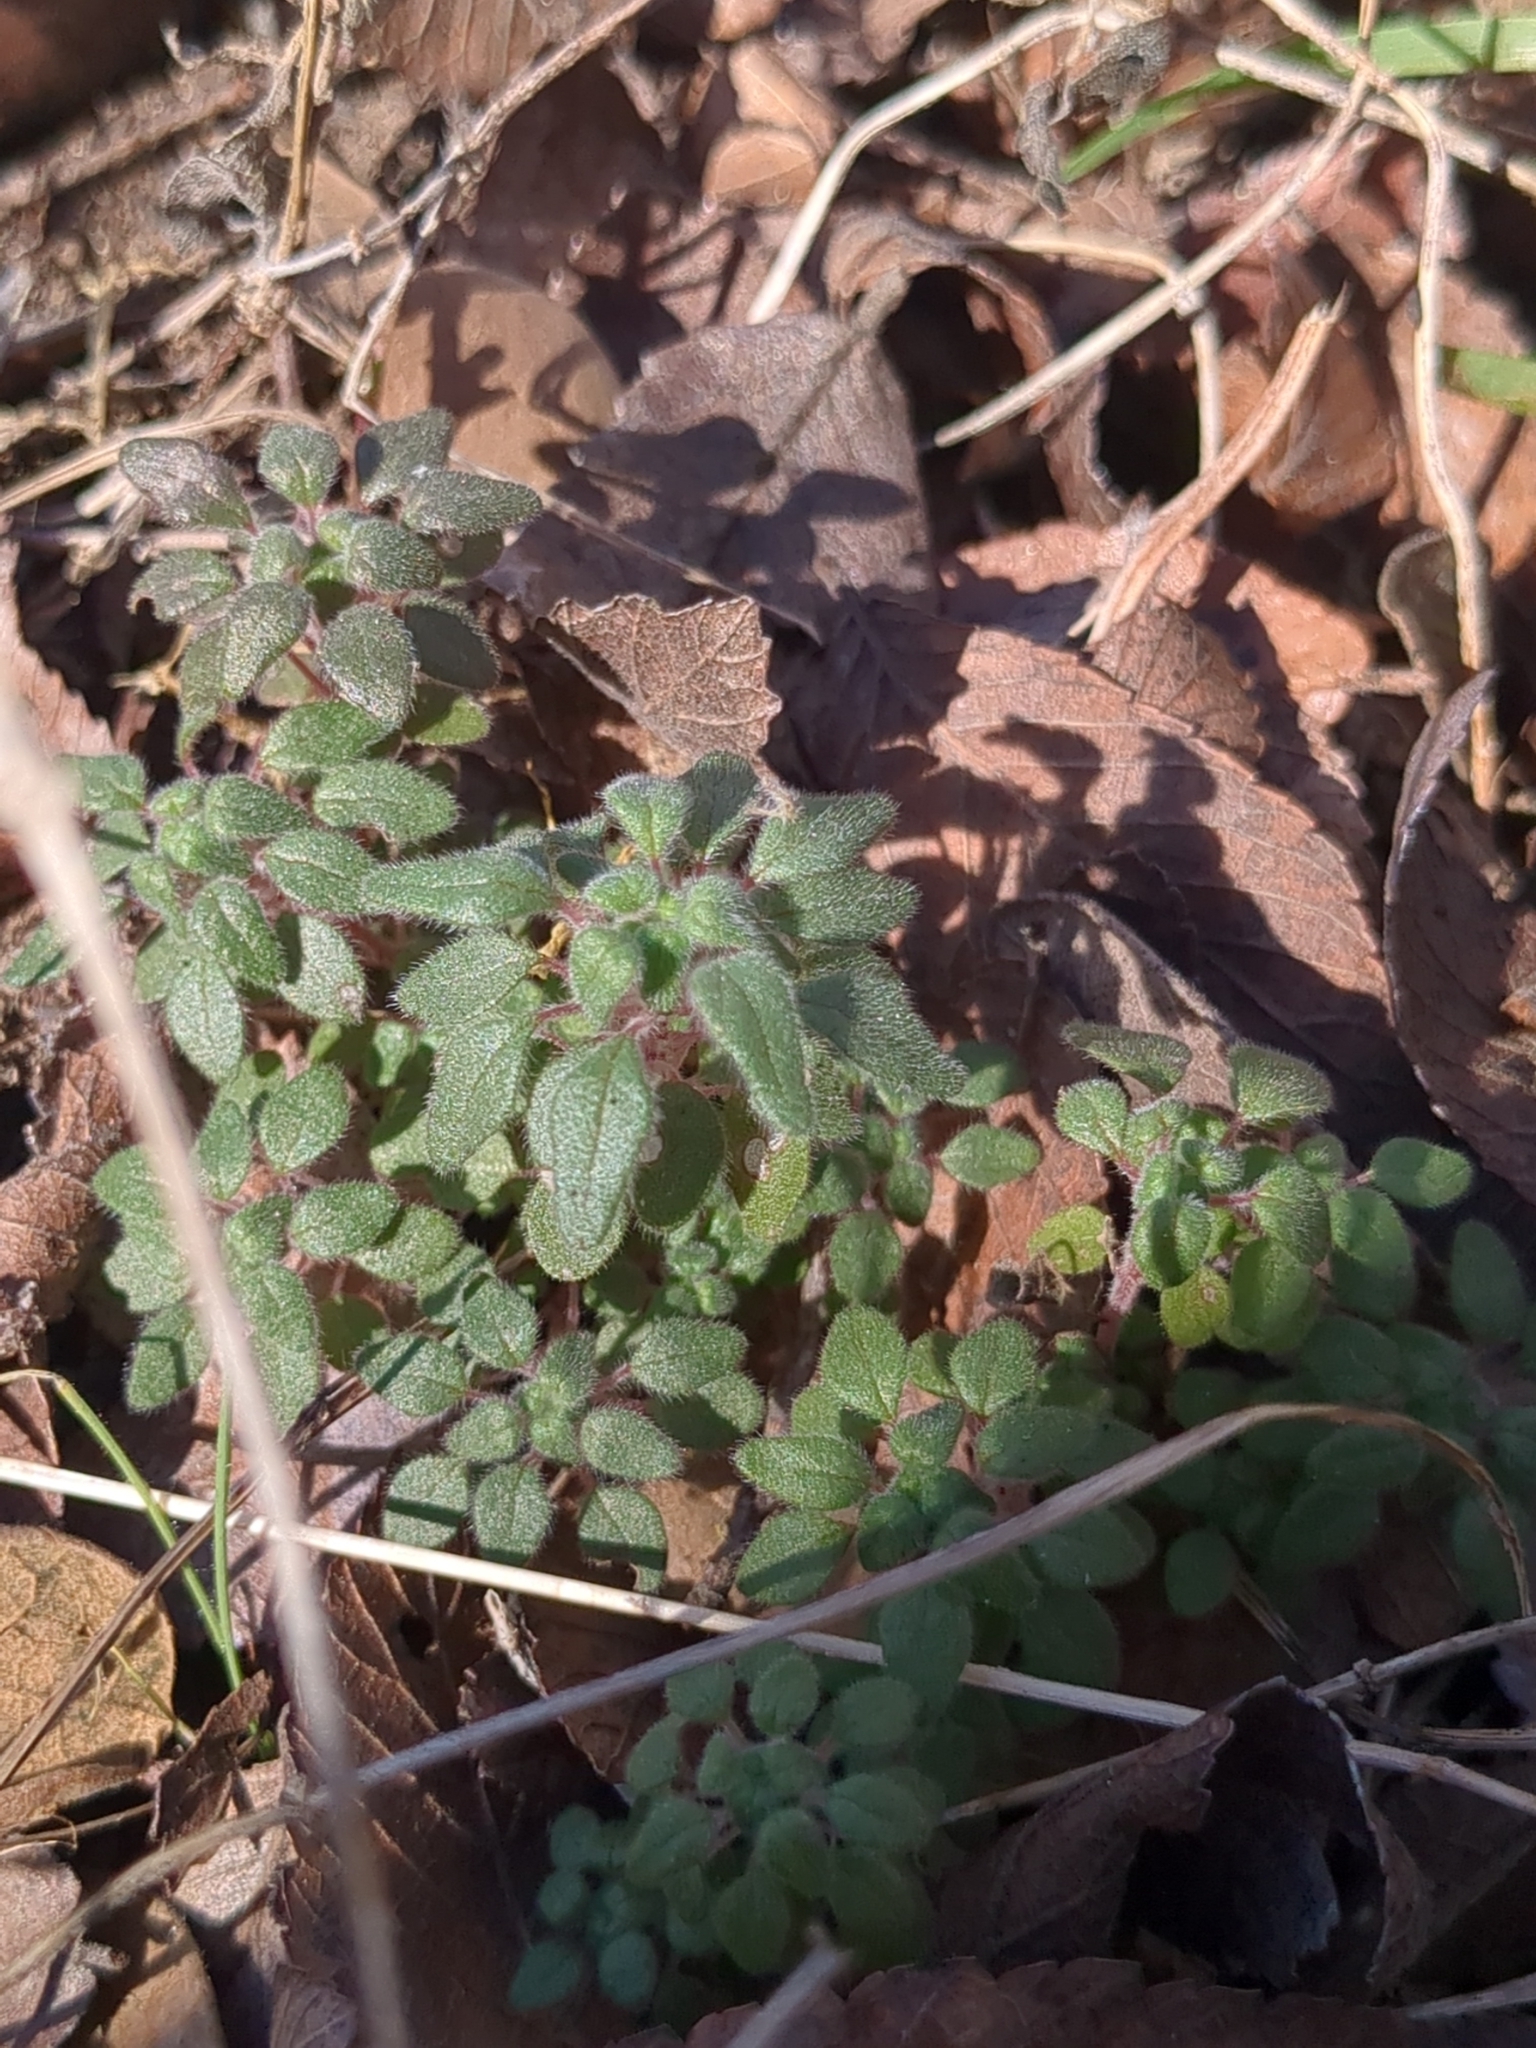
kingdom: Plantae
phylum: Tracheophyta
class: Magnoliopsida
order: Rosales
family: Urticaceae
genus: Parietaria
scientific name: Parietaria pensylvanica
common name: Pennsylvania pellitory
